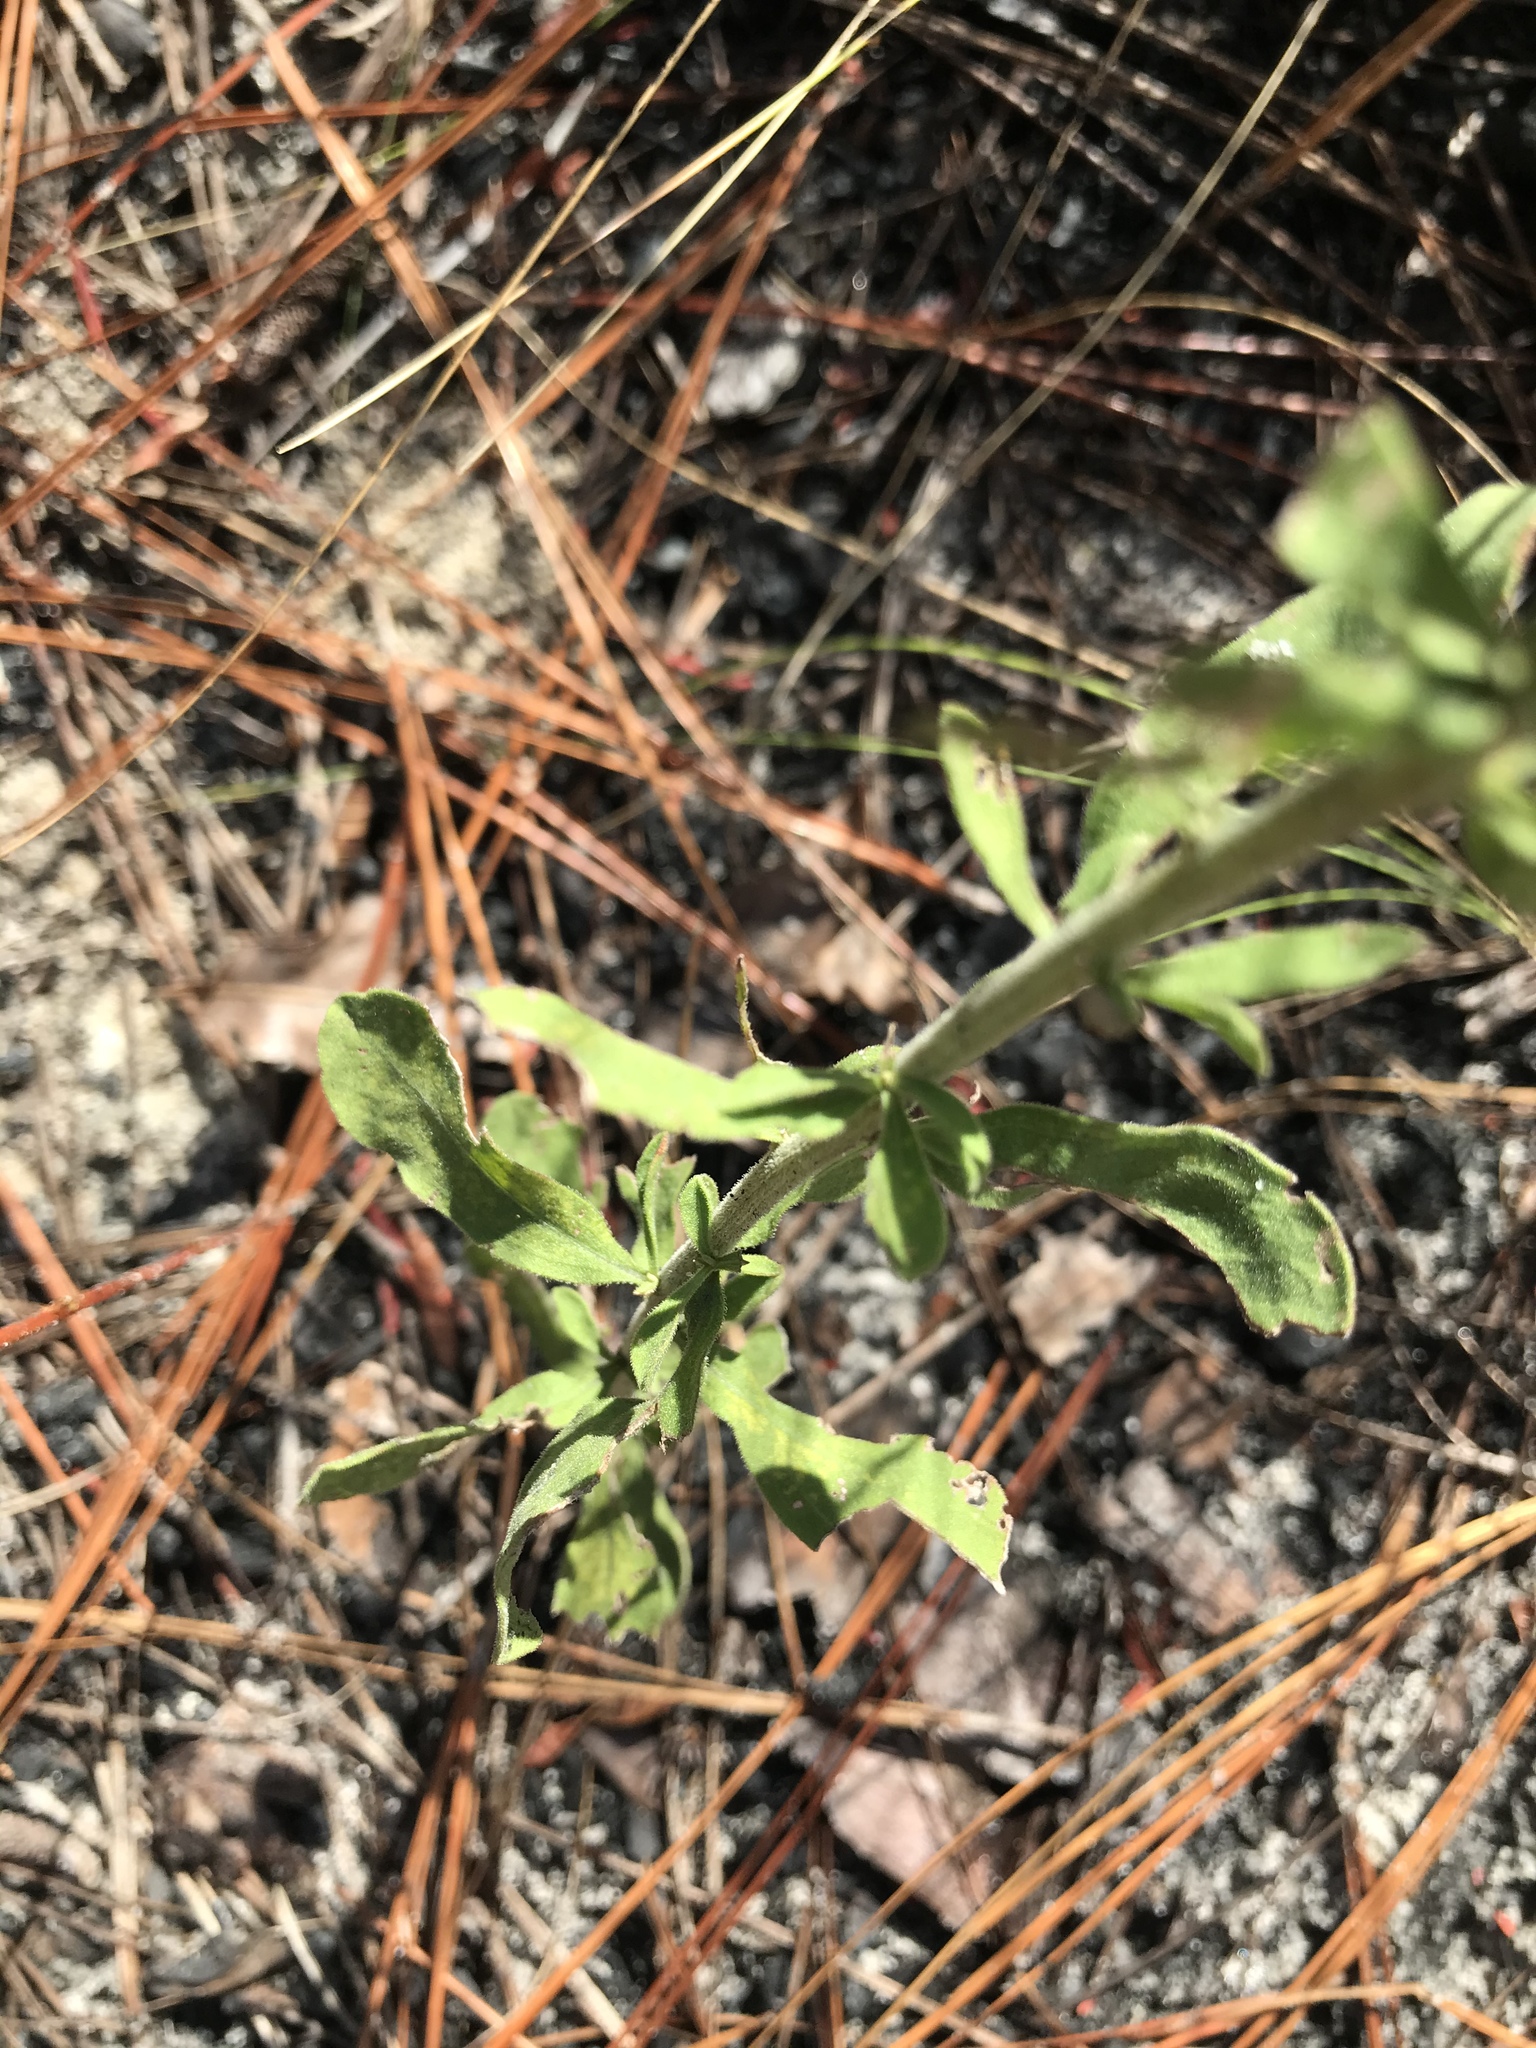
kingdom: Plantae
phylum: Tracheophyta
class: Magnoliopsida
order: Asterales
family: Asteraceae
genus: Sericocarpus
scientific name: Sericocarpus tortifolius
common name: Dixie aster
